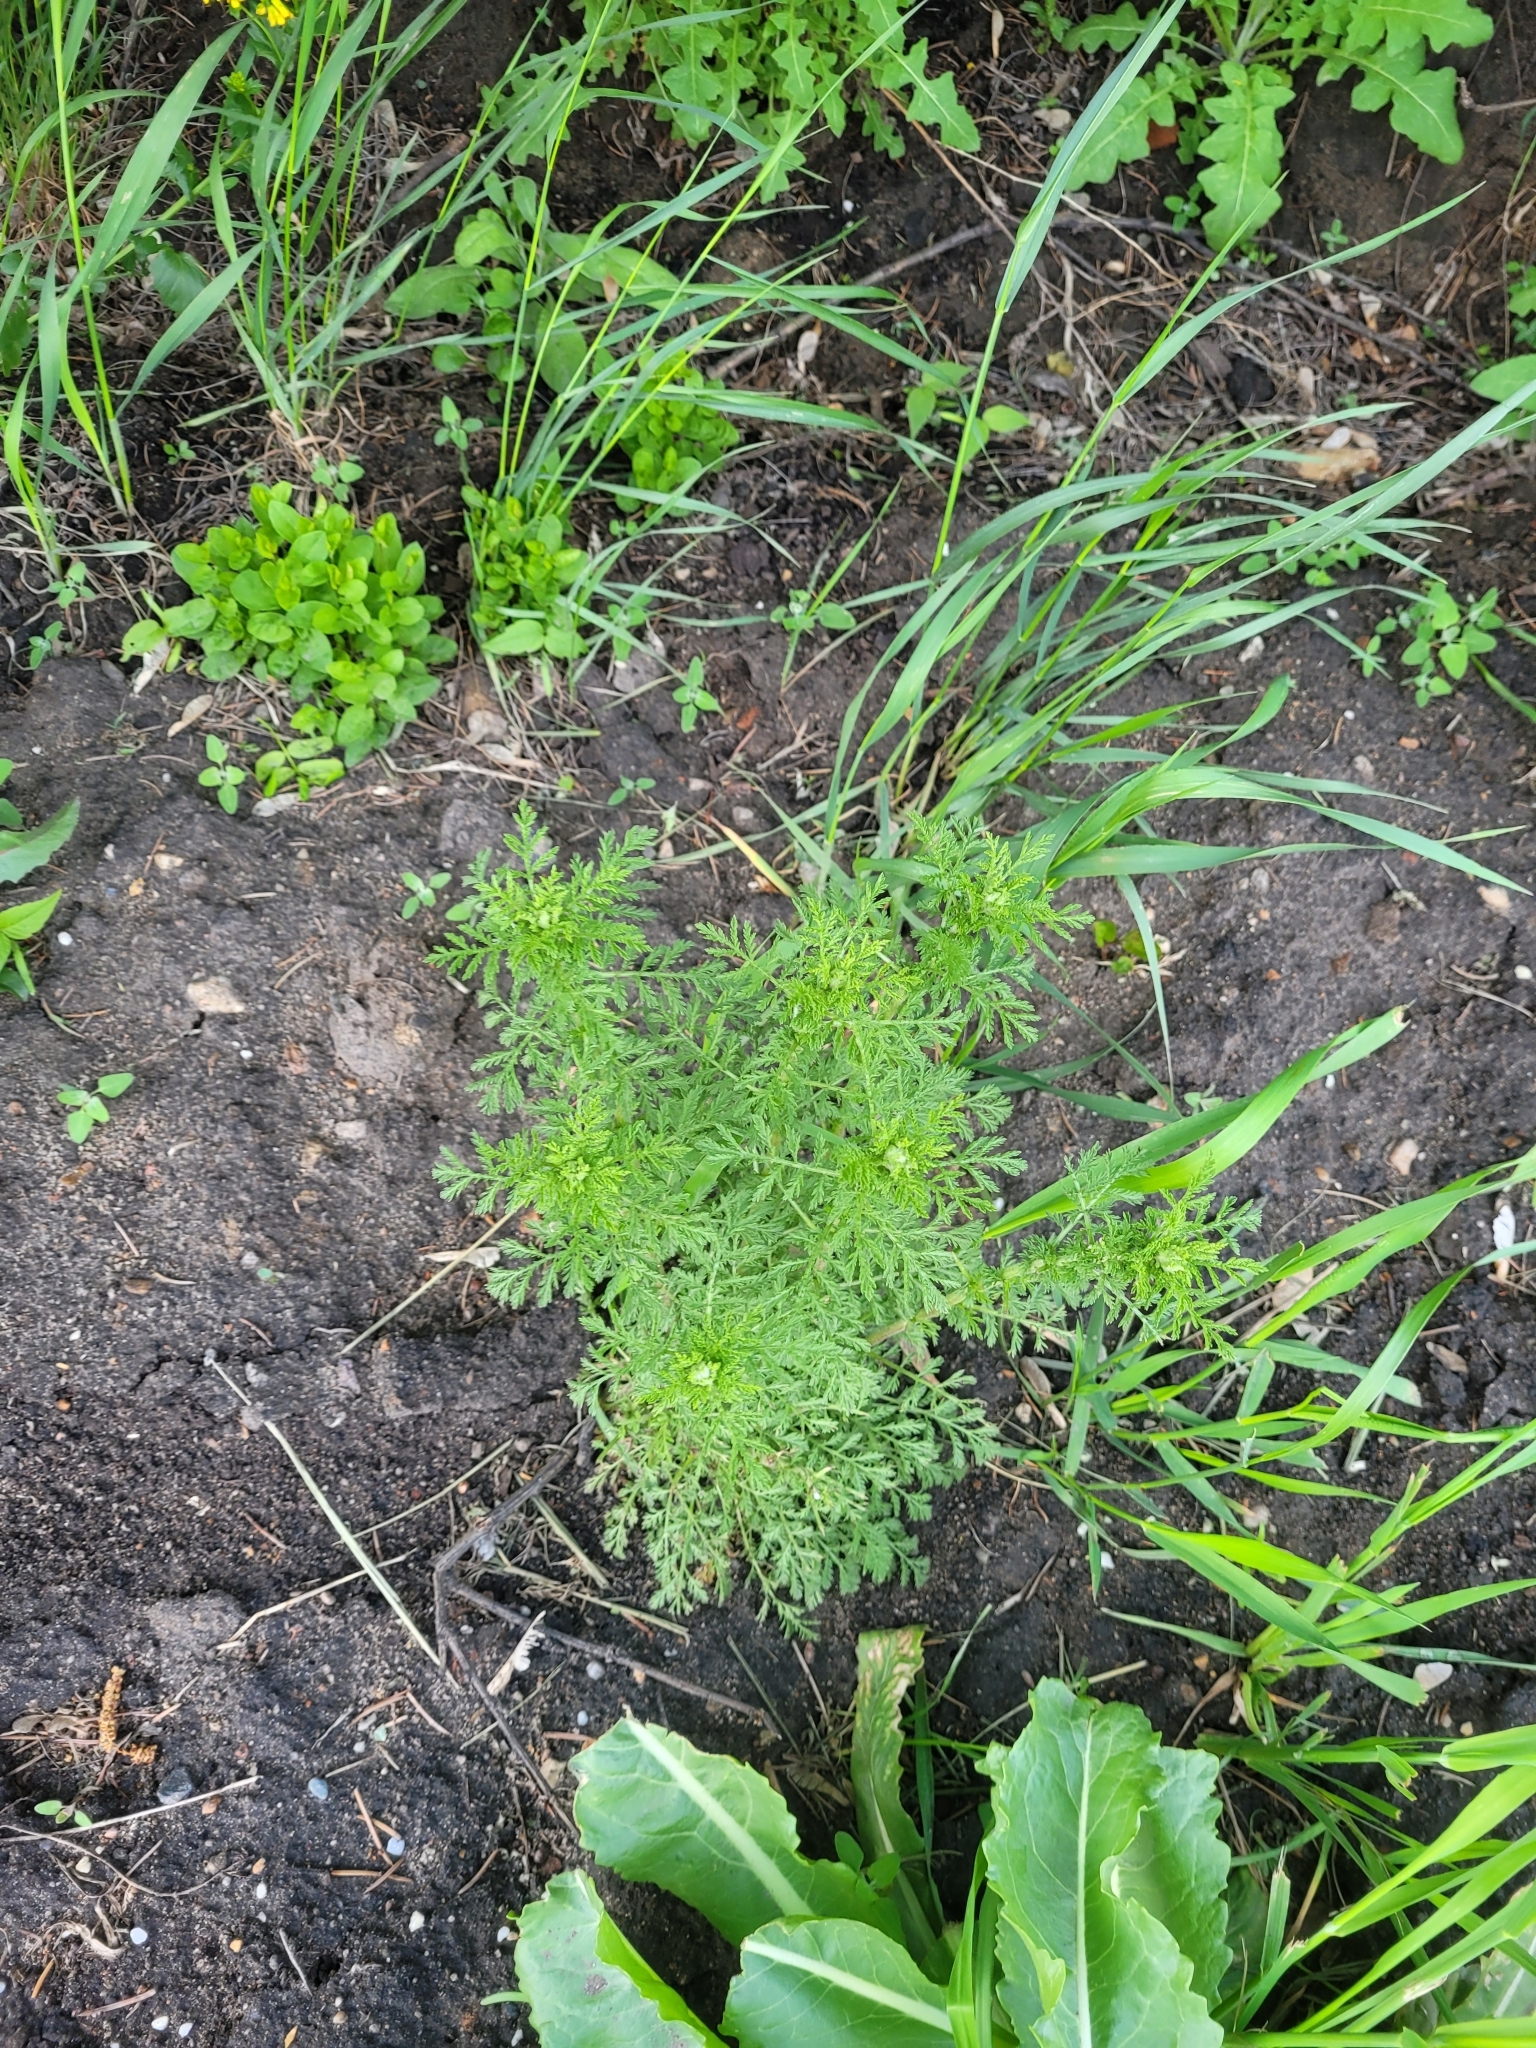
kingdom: Plantae
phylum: Tracheophyta
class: Magnoliopsida
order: Asterales
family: Asteraceae
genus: Achillea
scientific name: Achillea nobilis
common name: Noble yarrow
